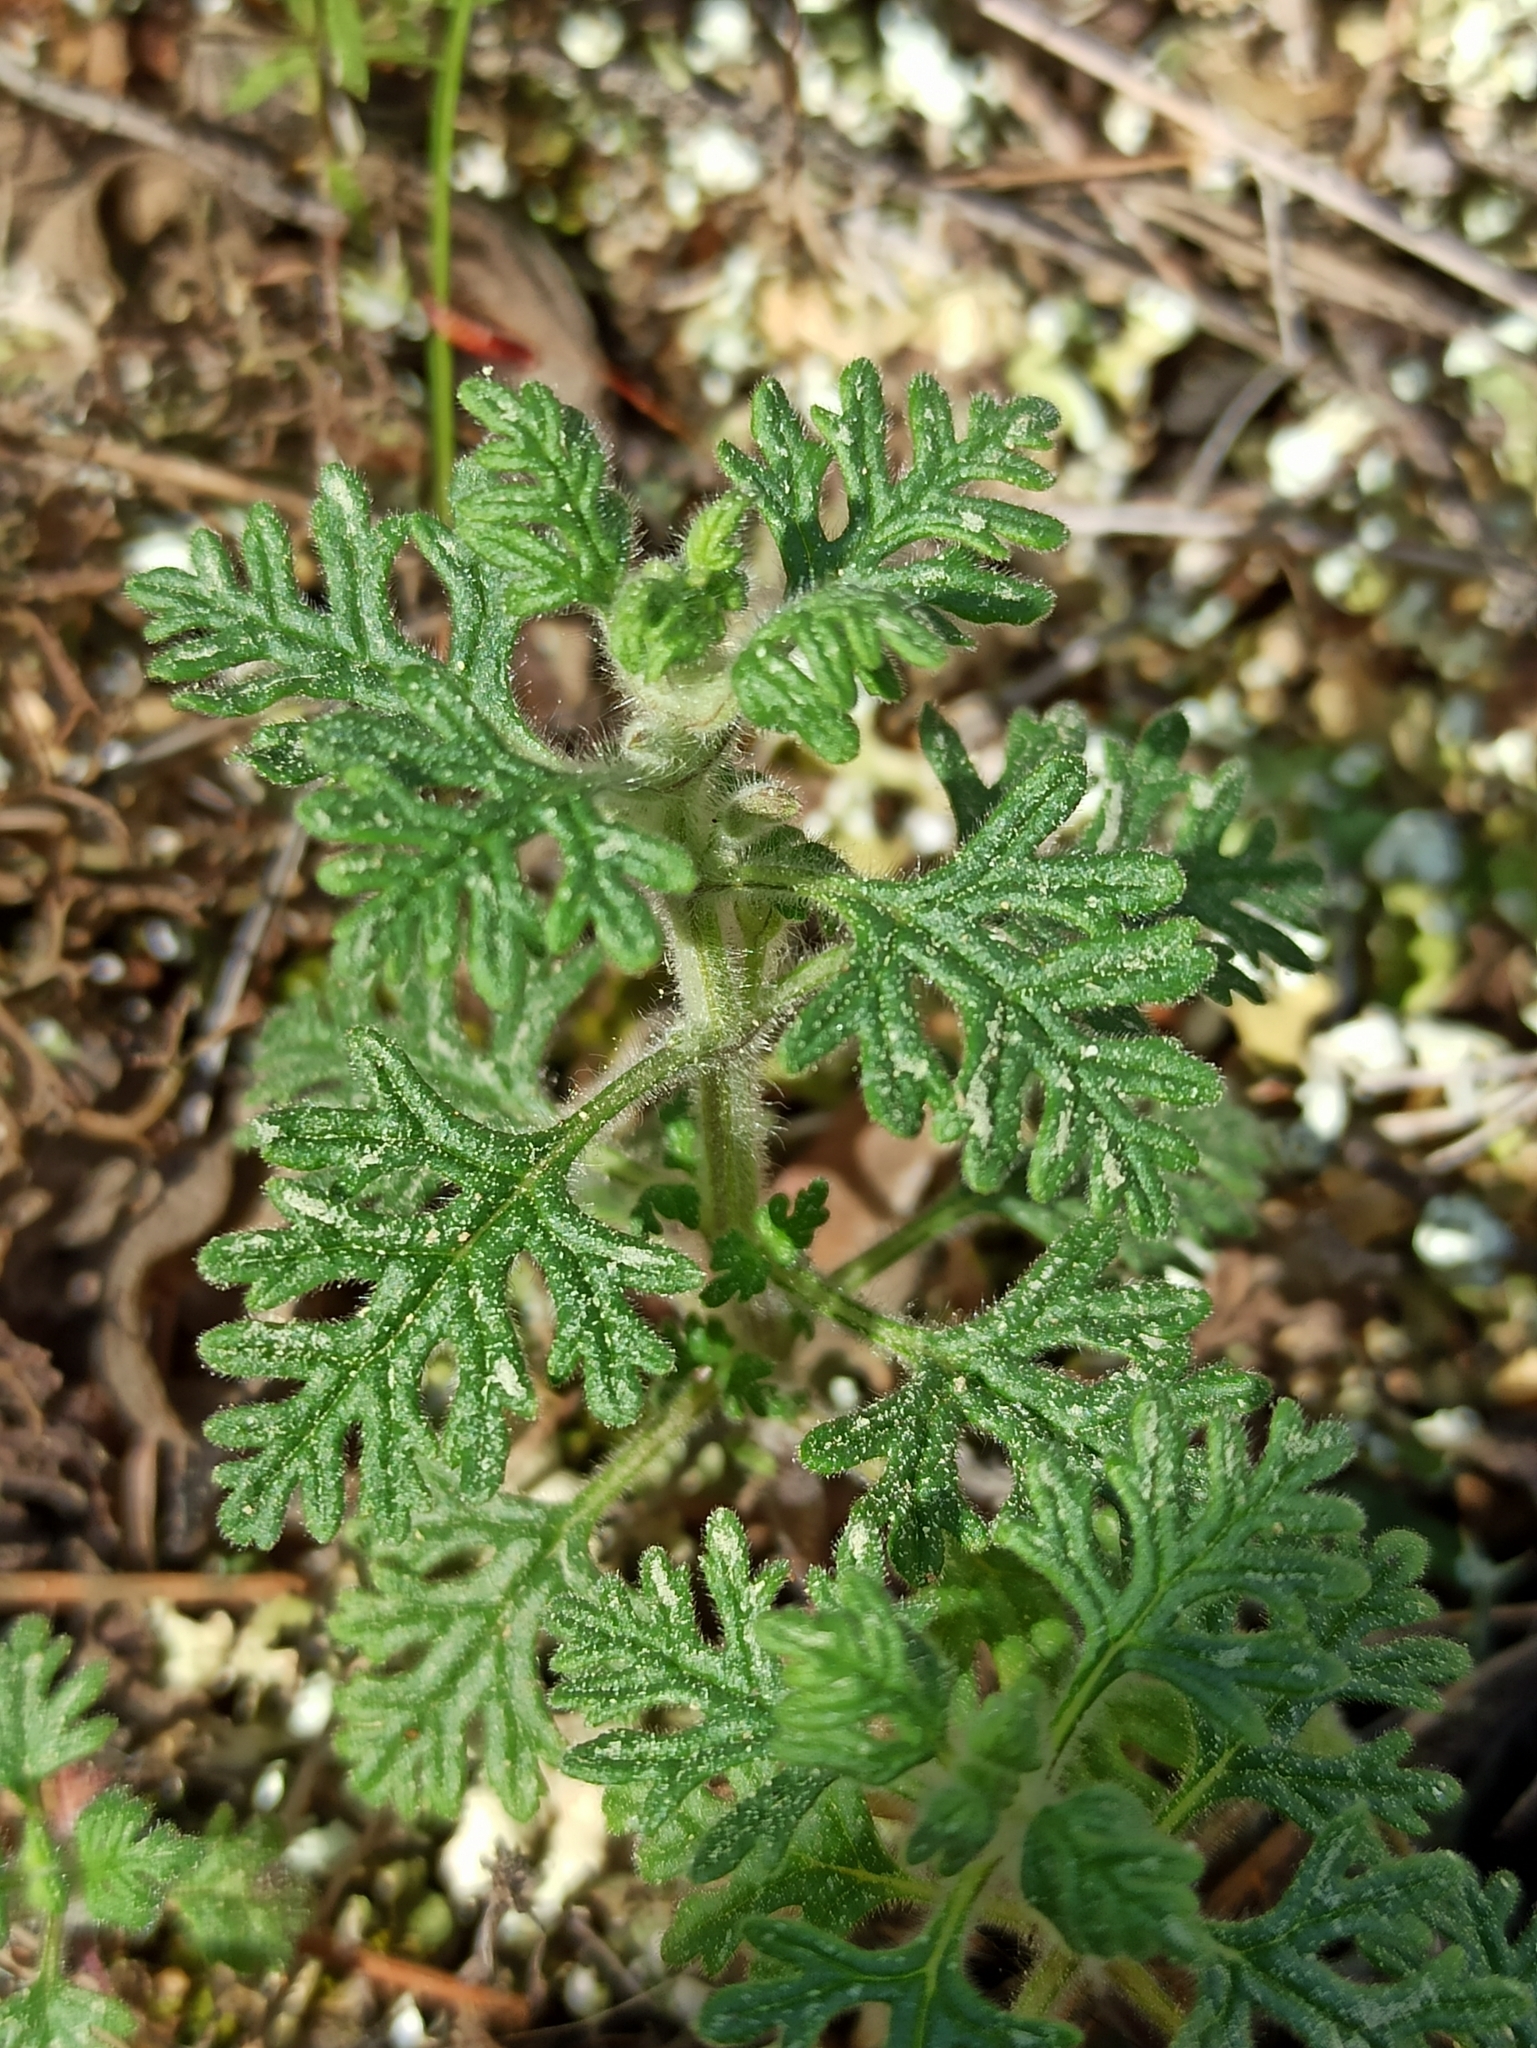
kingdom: Plantae
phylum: Tracheophyta
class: Magnoliopsida
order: Lamiales
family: Lamiaceae
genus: Teucrium
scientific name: Teucrium botrys
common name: Cut-leaved germander
